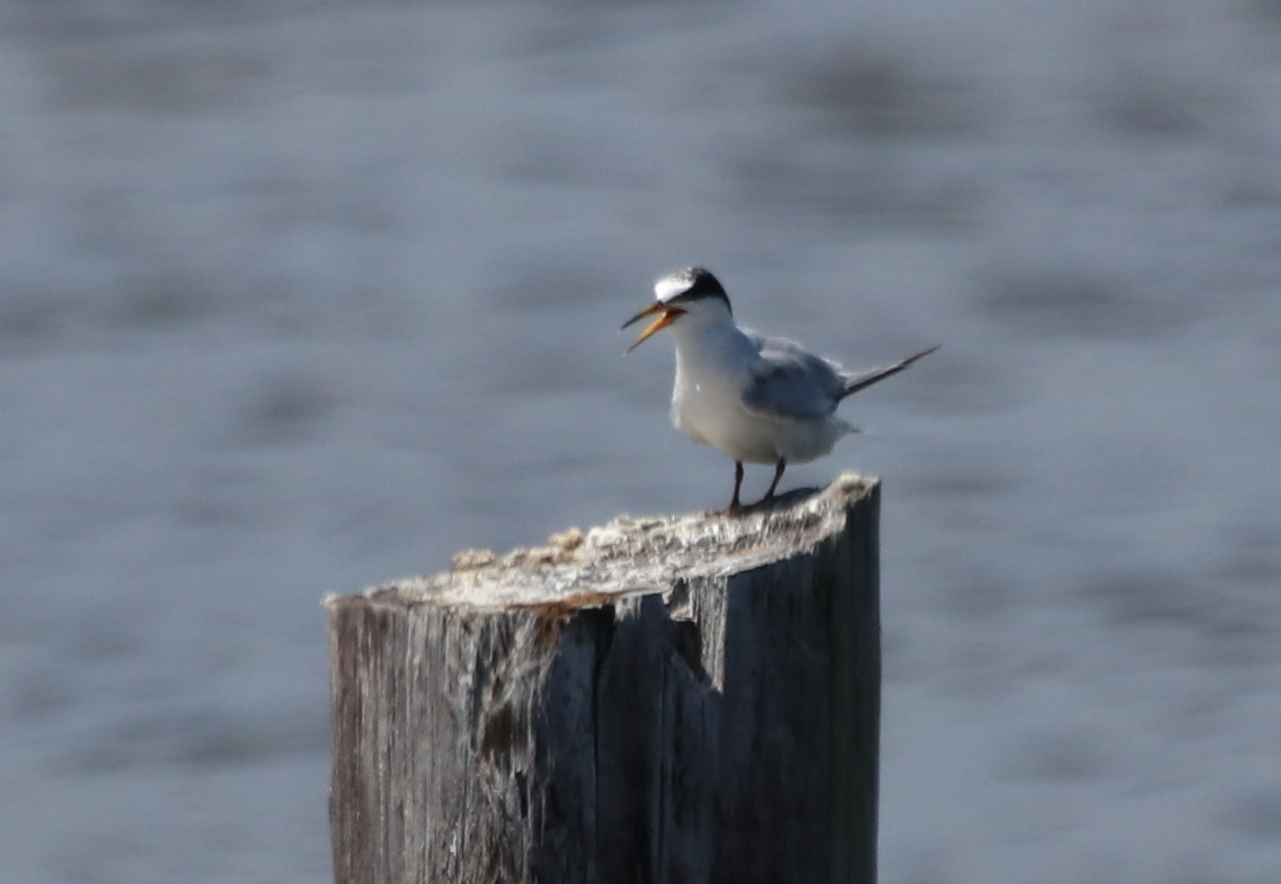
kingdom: Animalia
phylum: Chordata
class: Aves
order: Charadriiformes
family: Laridae
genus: Sternula
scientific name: Sternula antillarum
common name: Least tern
